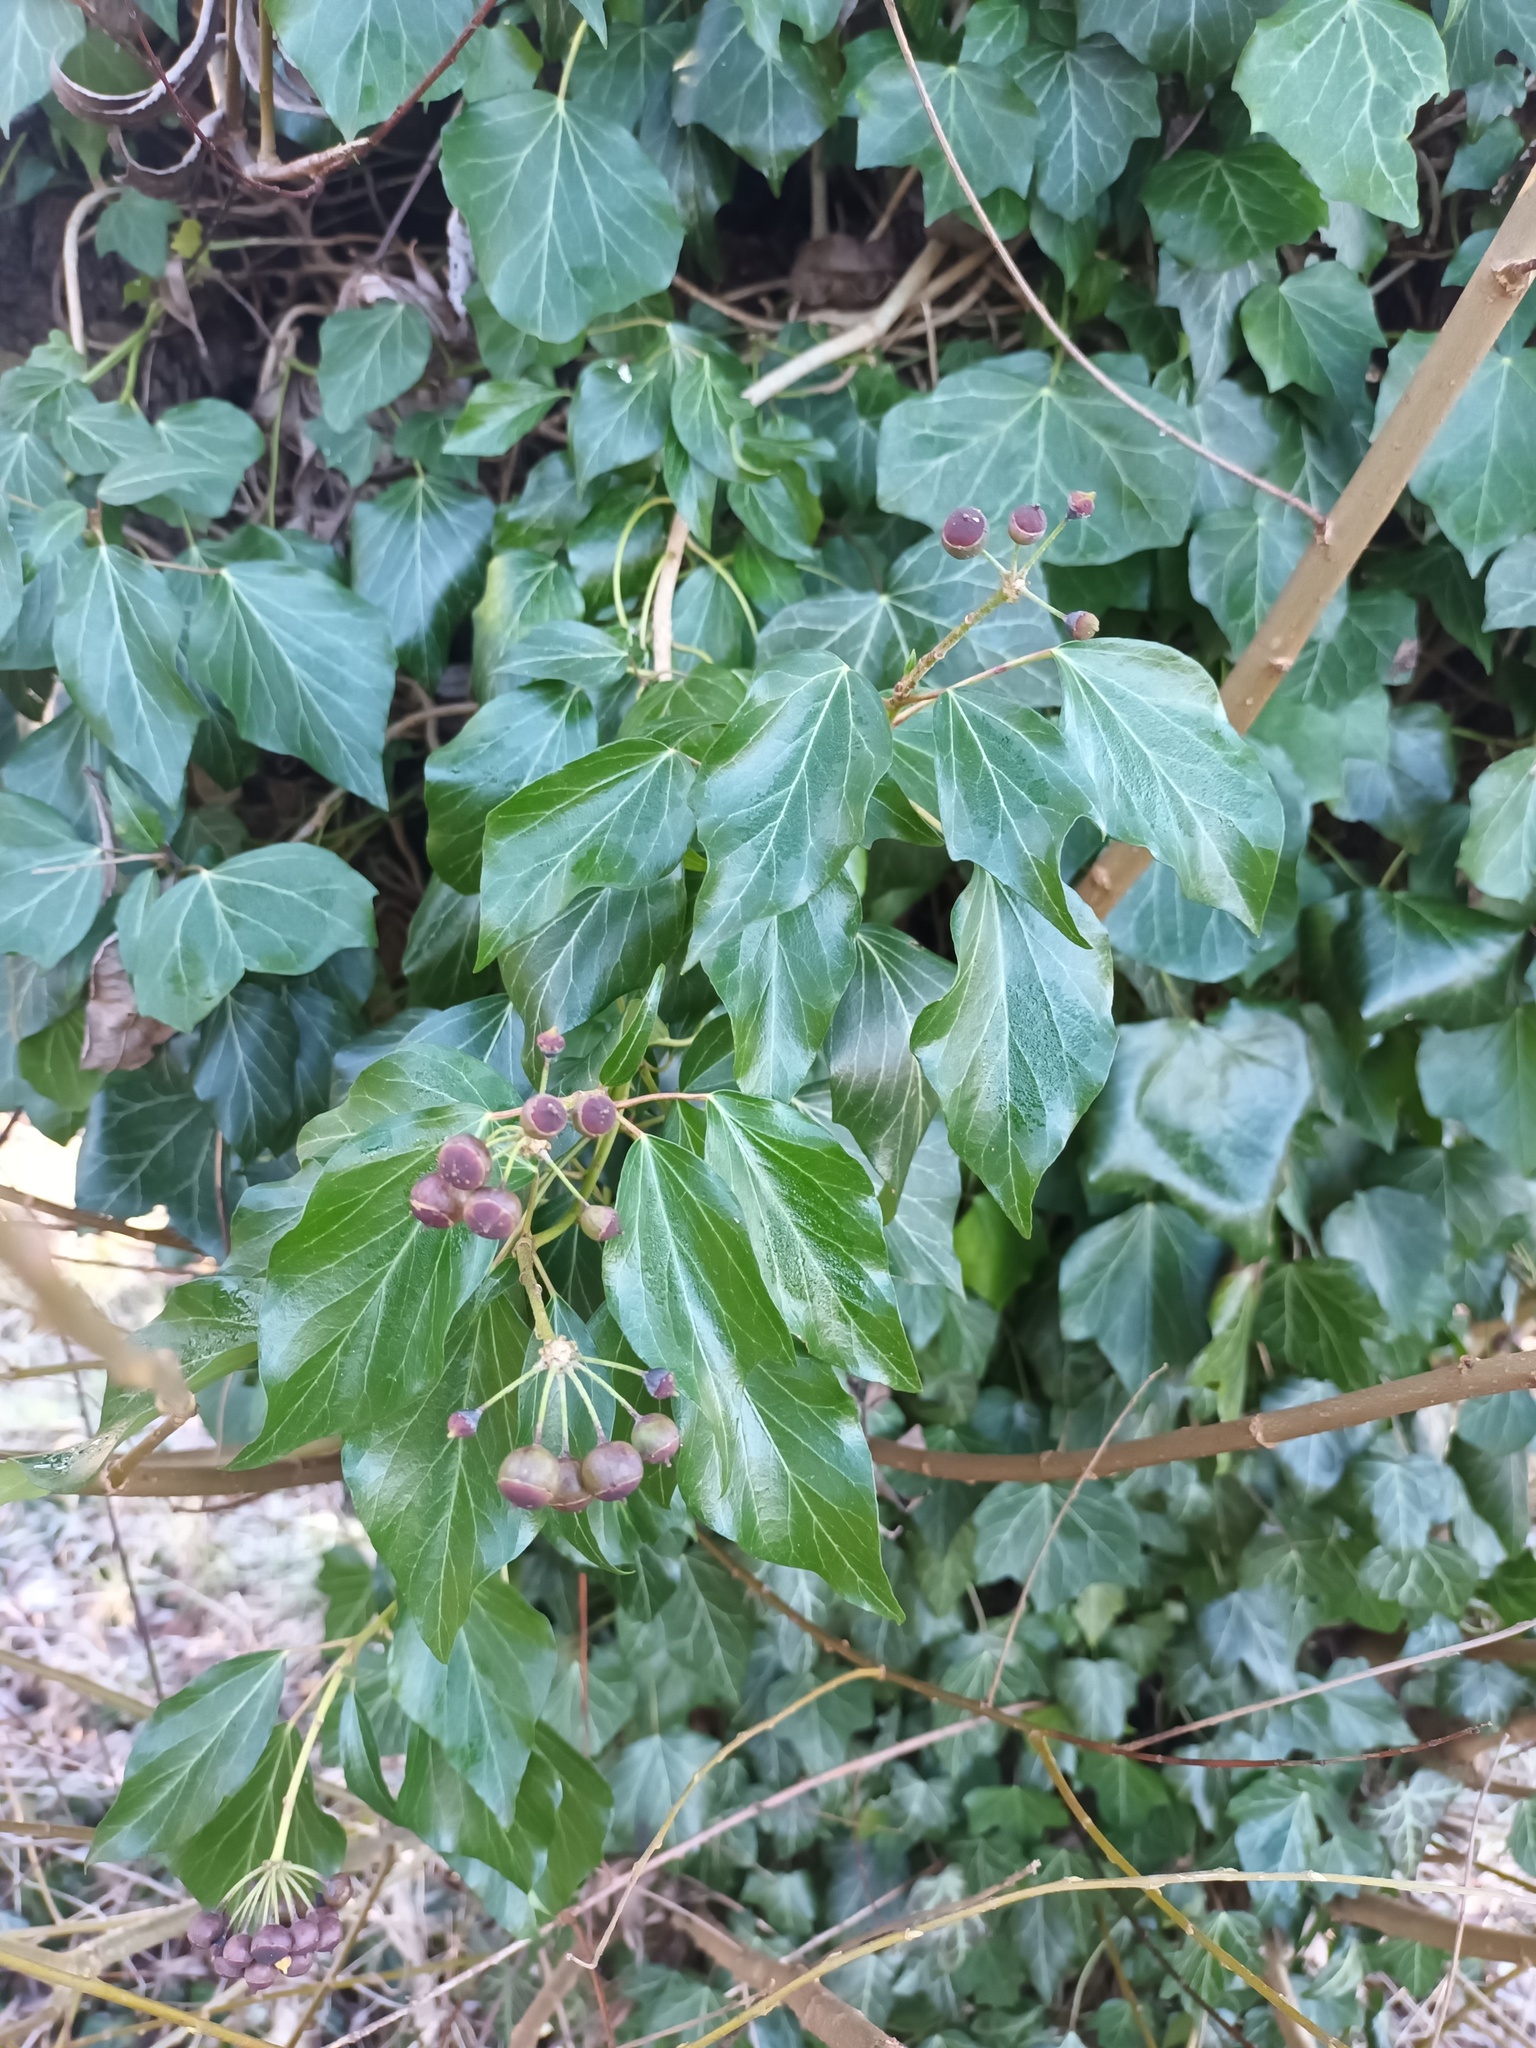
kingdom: Plantae
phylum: Tracheophyta
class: Magnoliopsida
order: Apiales
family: Araliaceae
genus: Hedera
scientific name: Hedera helix
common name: Ivy
